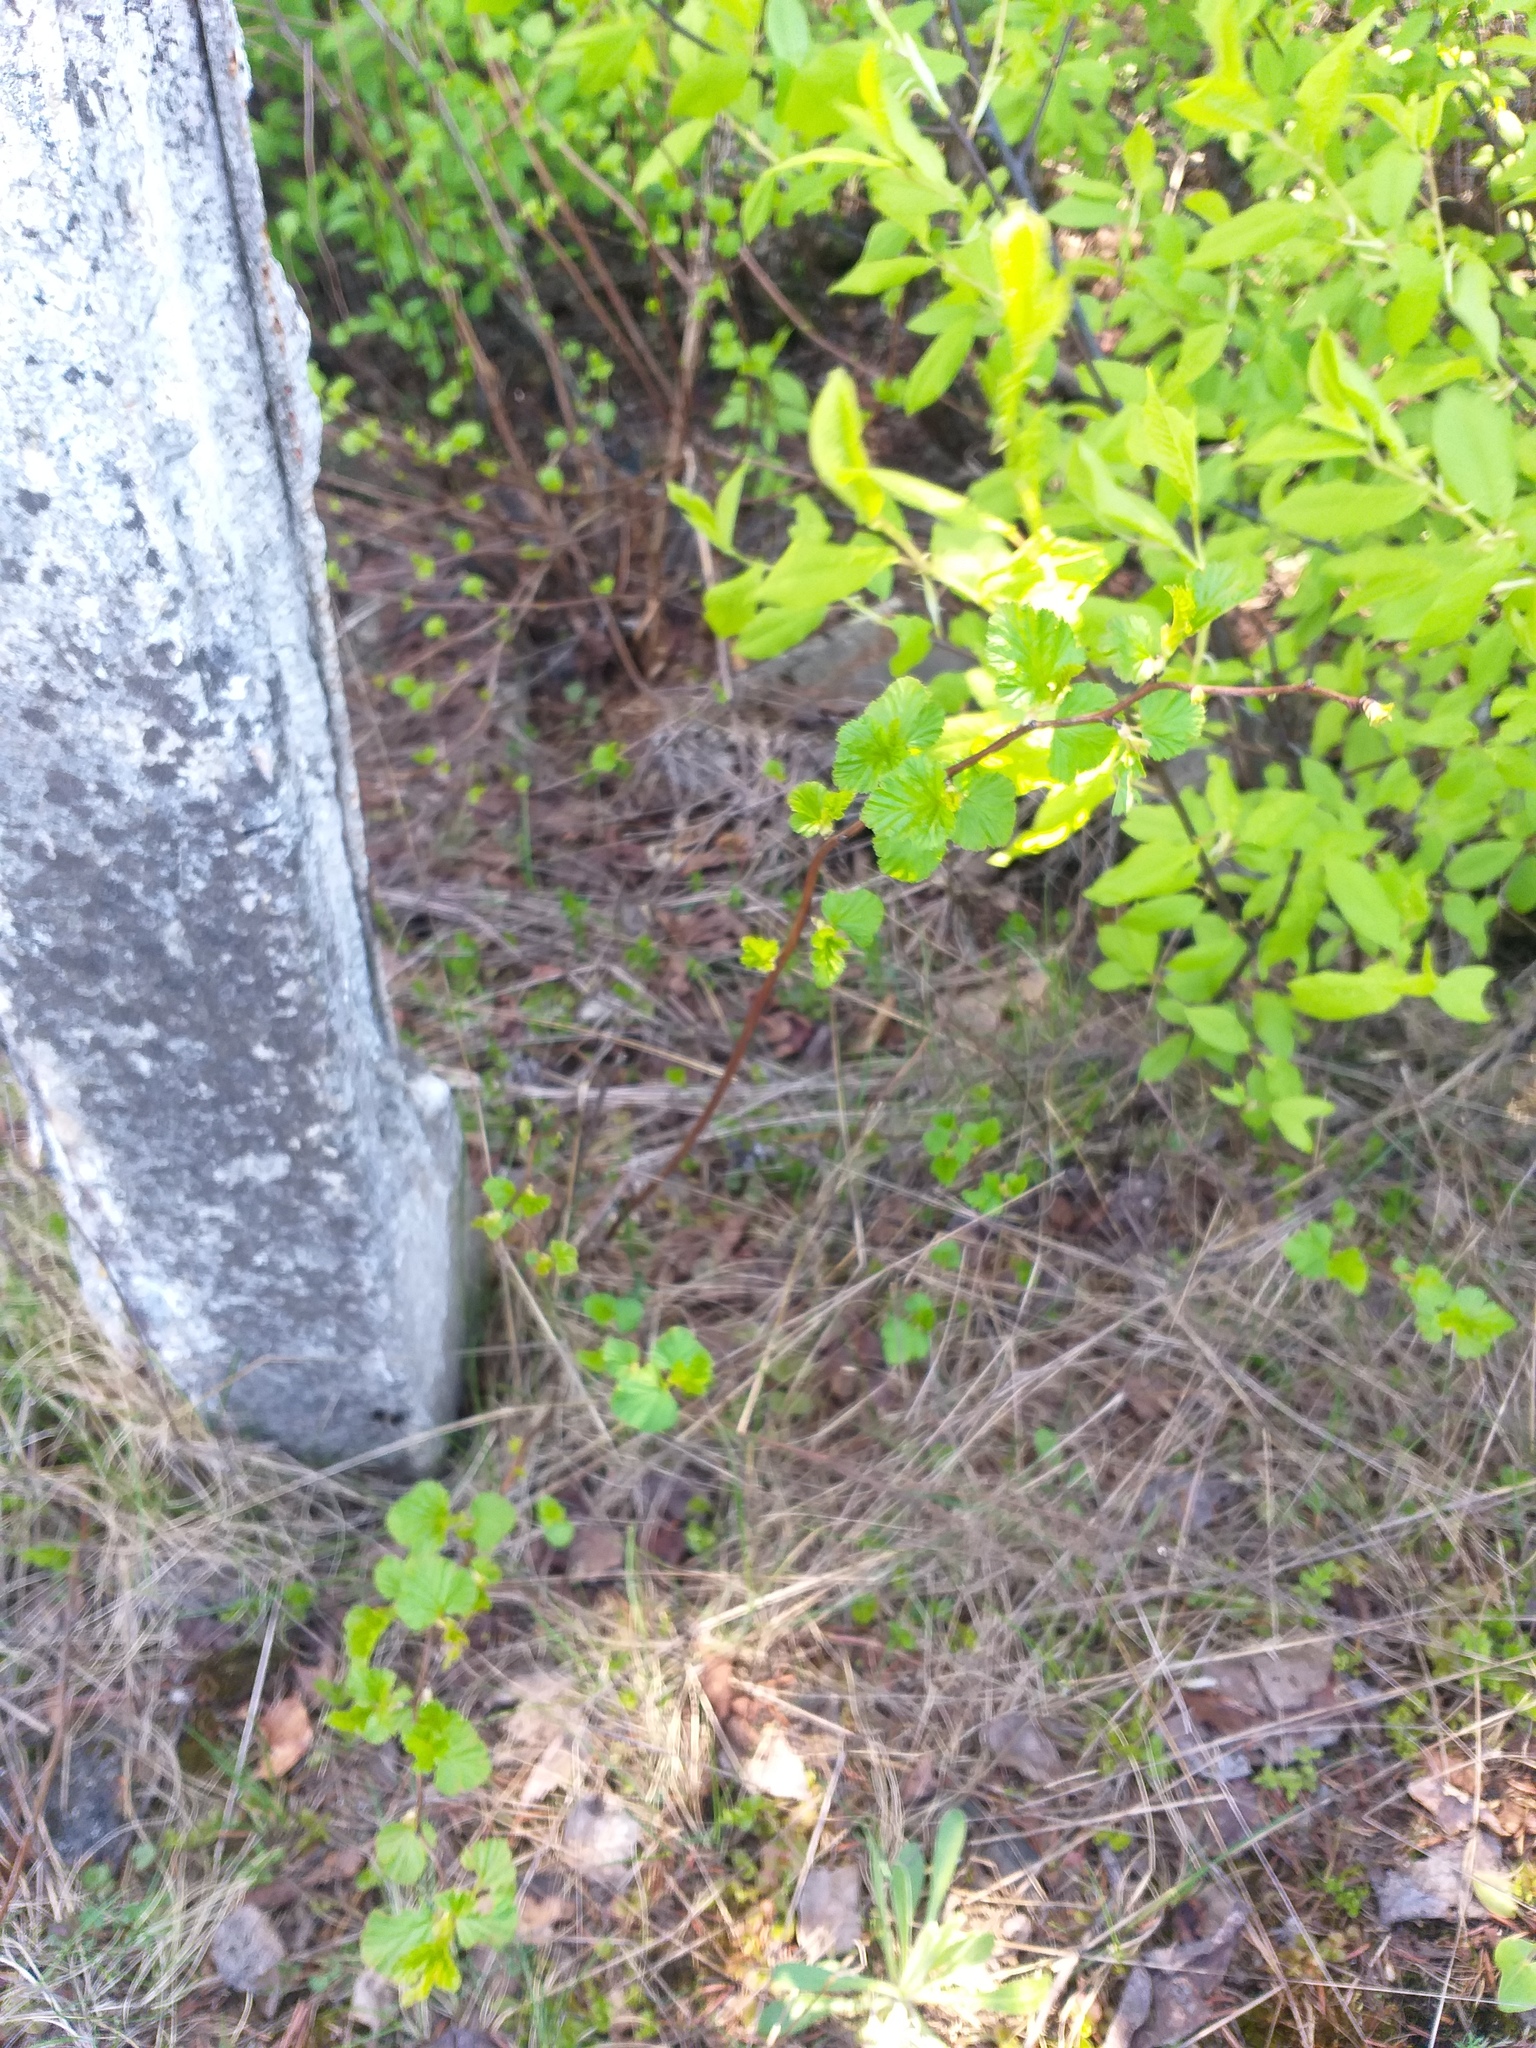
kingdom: Plantae
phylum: Tracheophyta
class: Magnoliopsida
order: Rosales
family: Rosaceae
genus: Physocarpus
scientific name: Physocarpus opulifolius
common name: Ninebark
